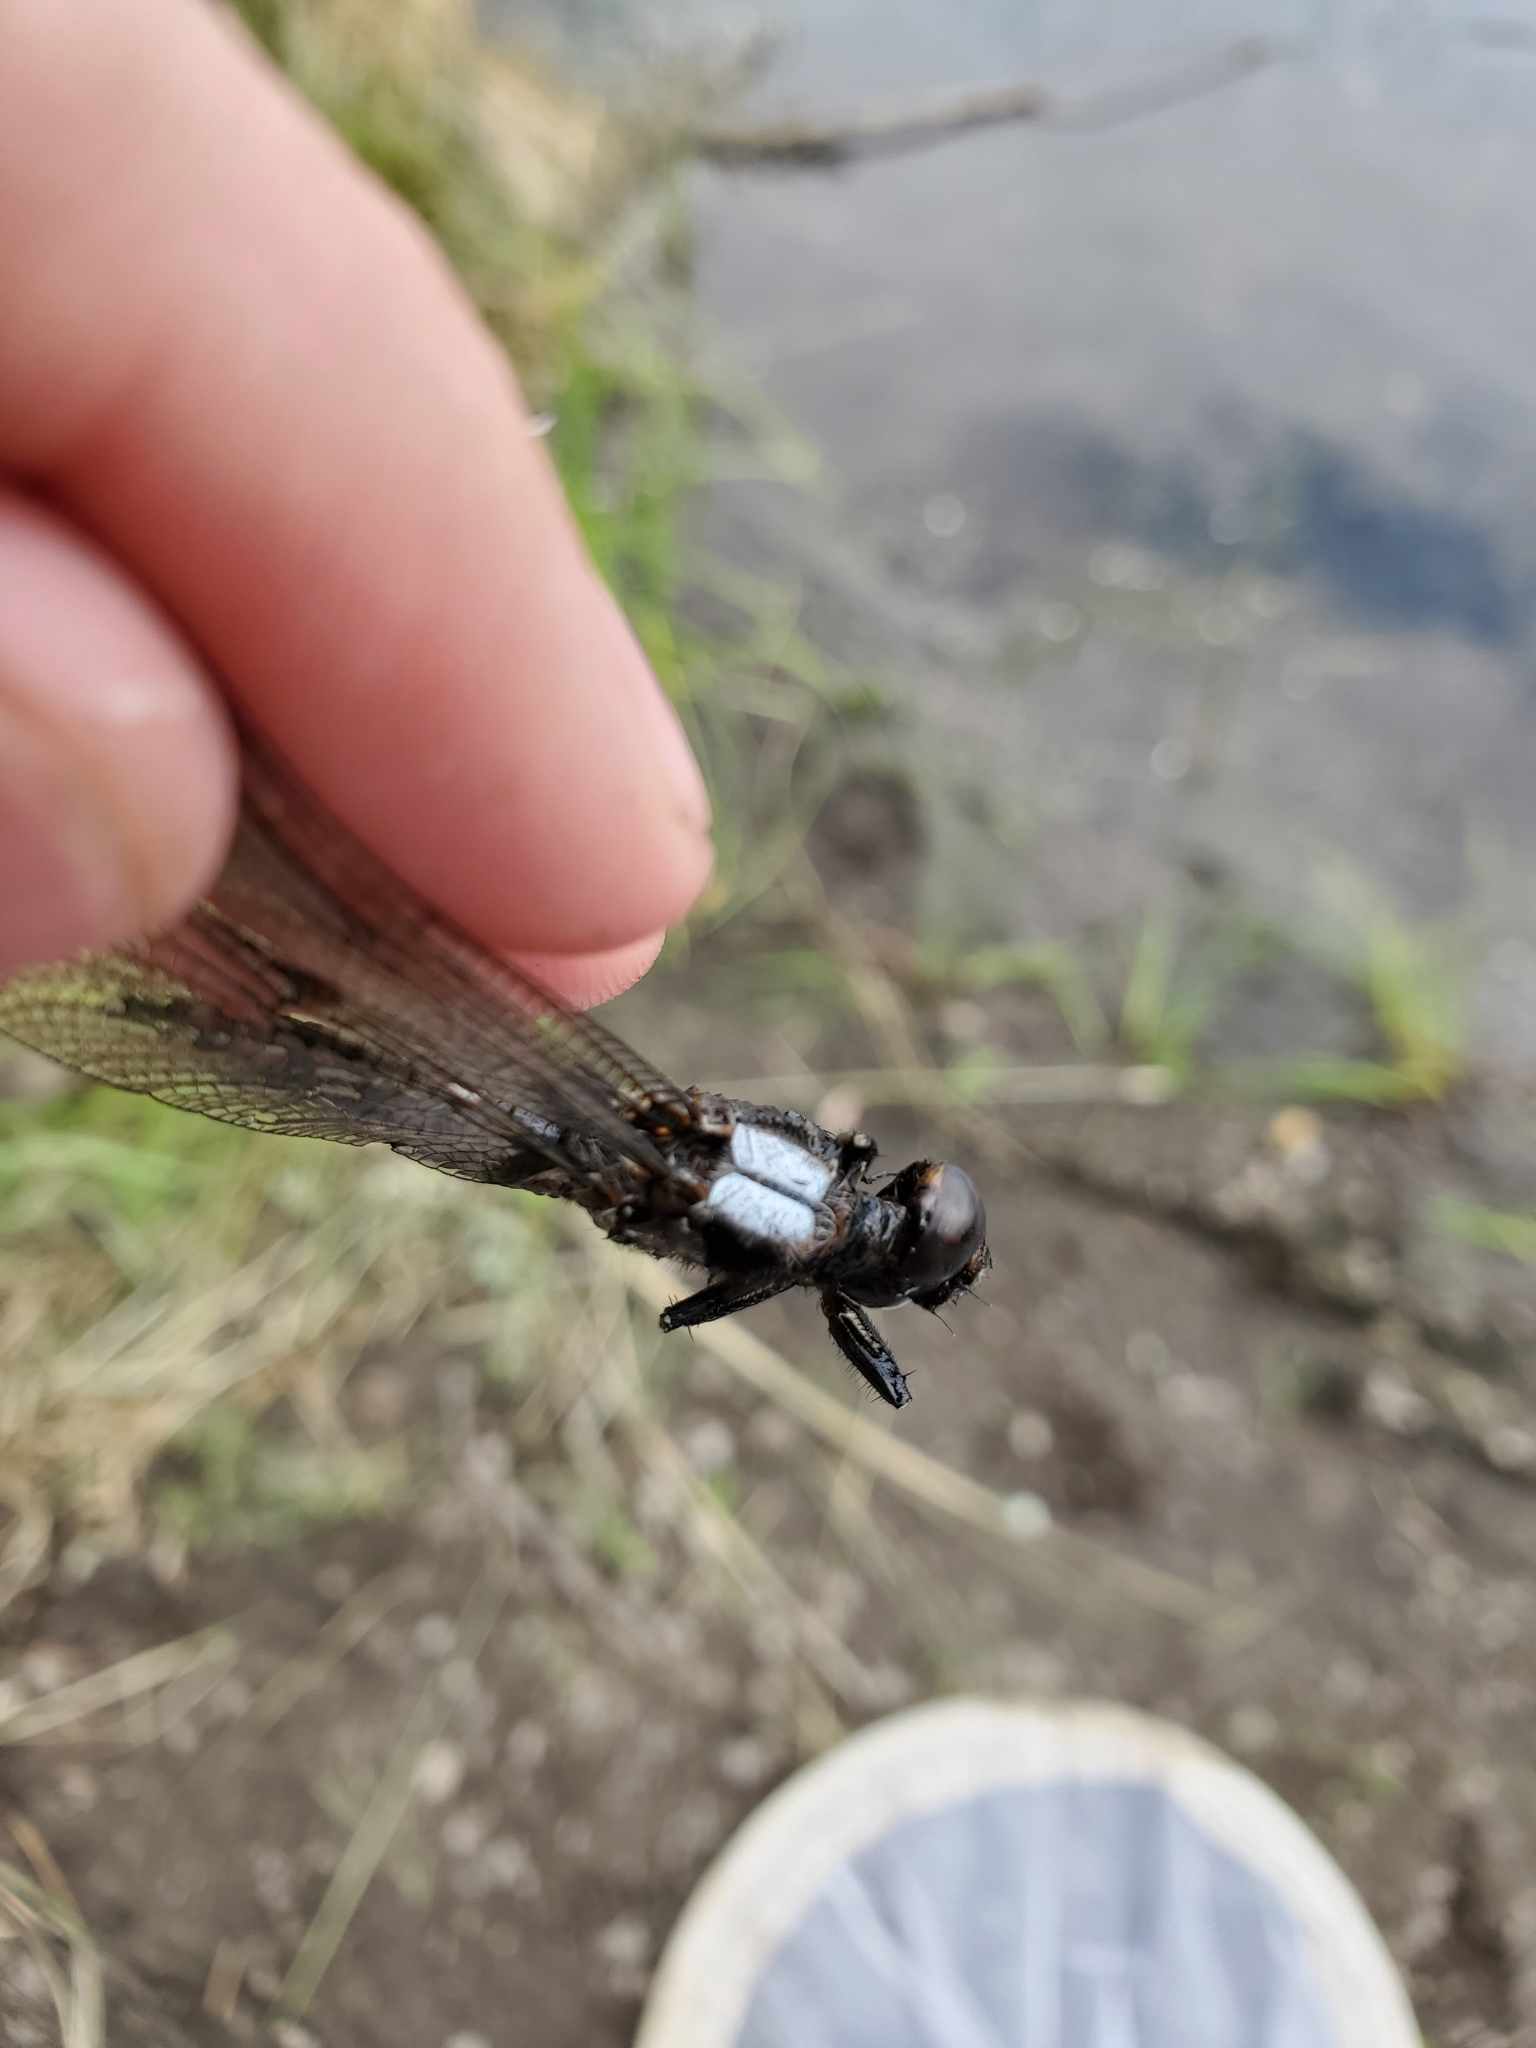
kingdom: Animalia
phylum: Arthropoda
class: Insecta
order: Odonata
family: Libellulidae
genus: Ladona
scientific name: Ladona julia
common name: Chalk-fronted corporal
